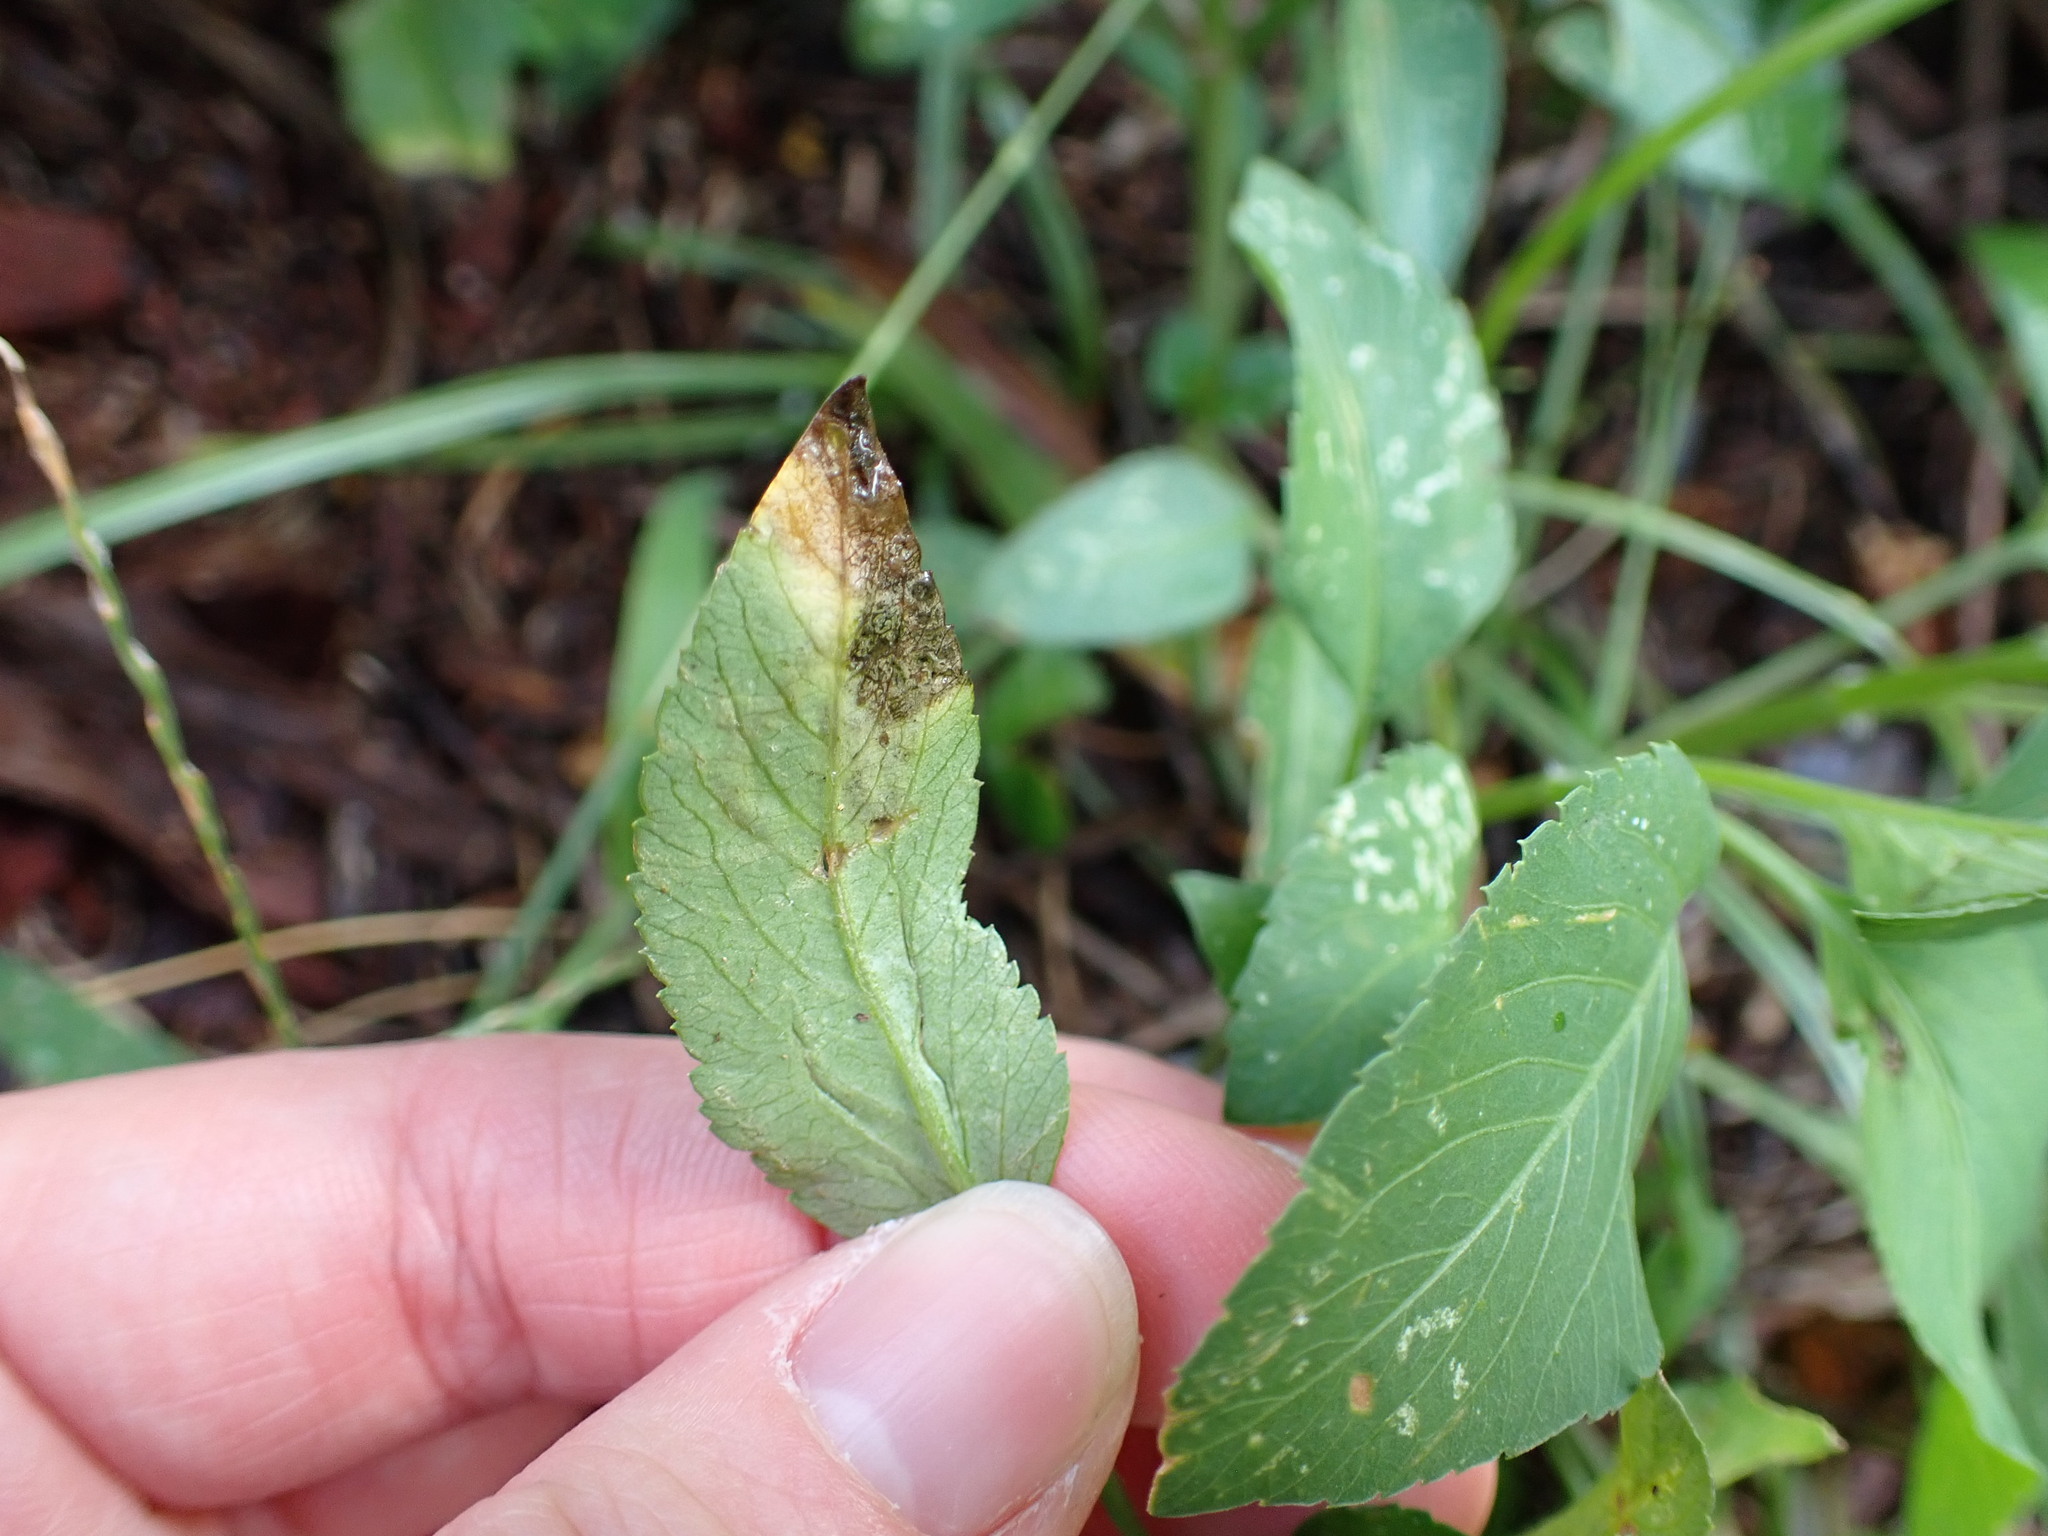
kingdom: Animalia
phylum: Arthropoda
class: Insecta
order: Diptera
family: Agromyzidae
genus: Liriomyza
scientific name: Liriomyza carphephori
